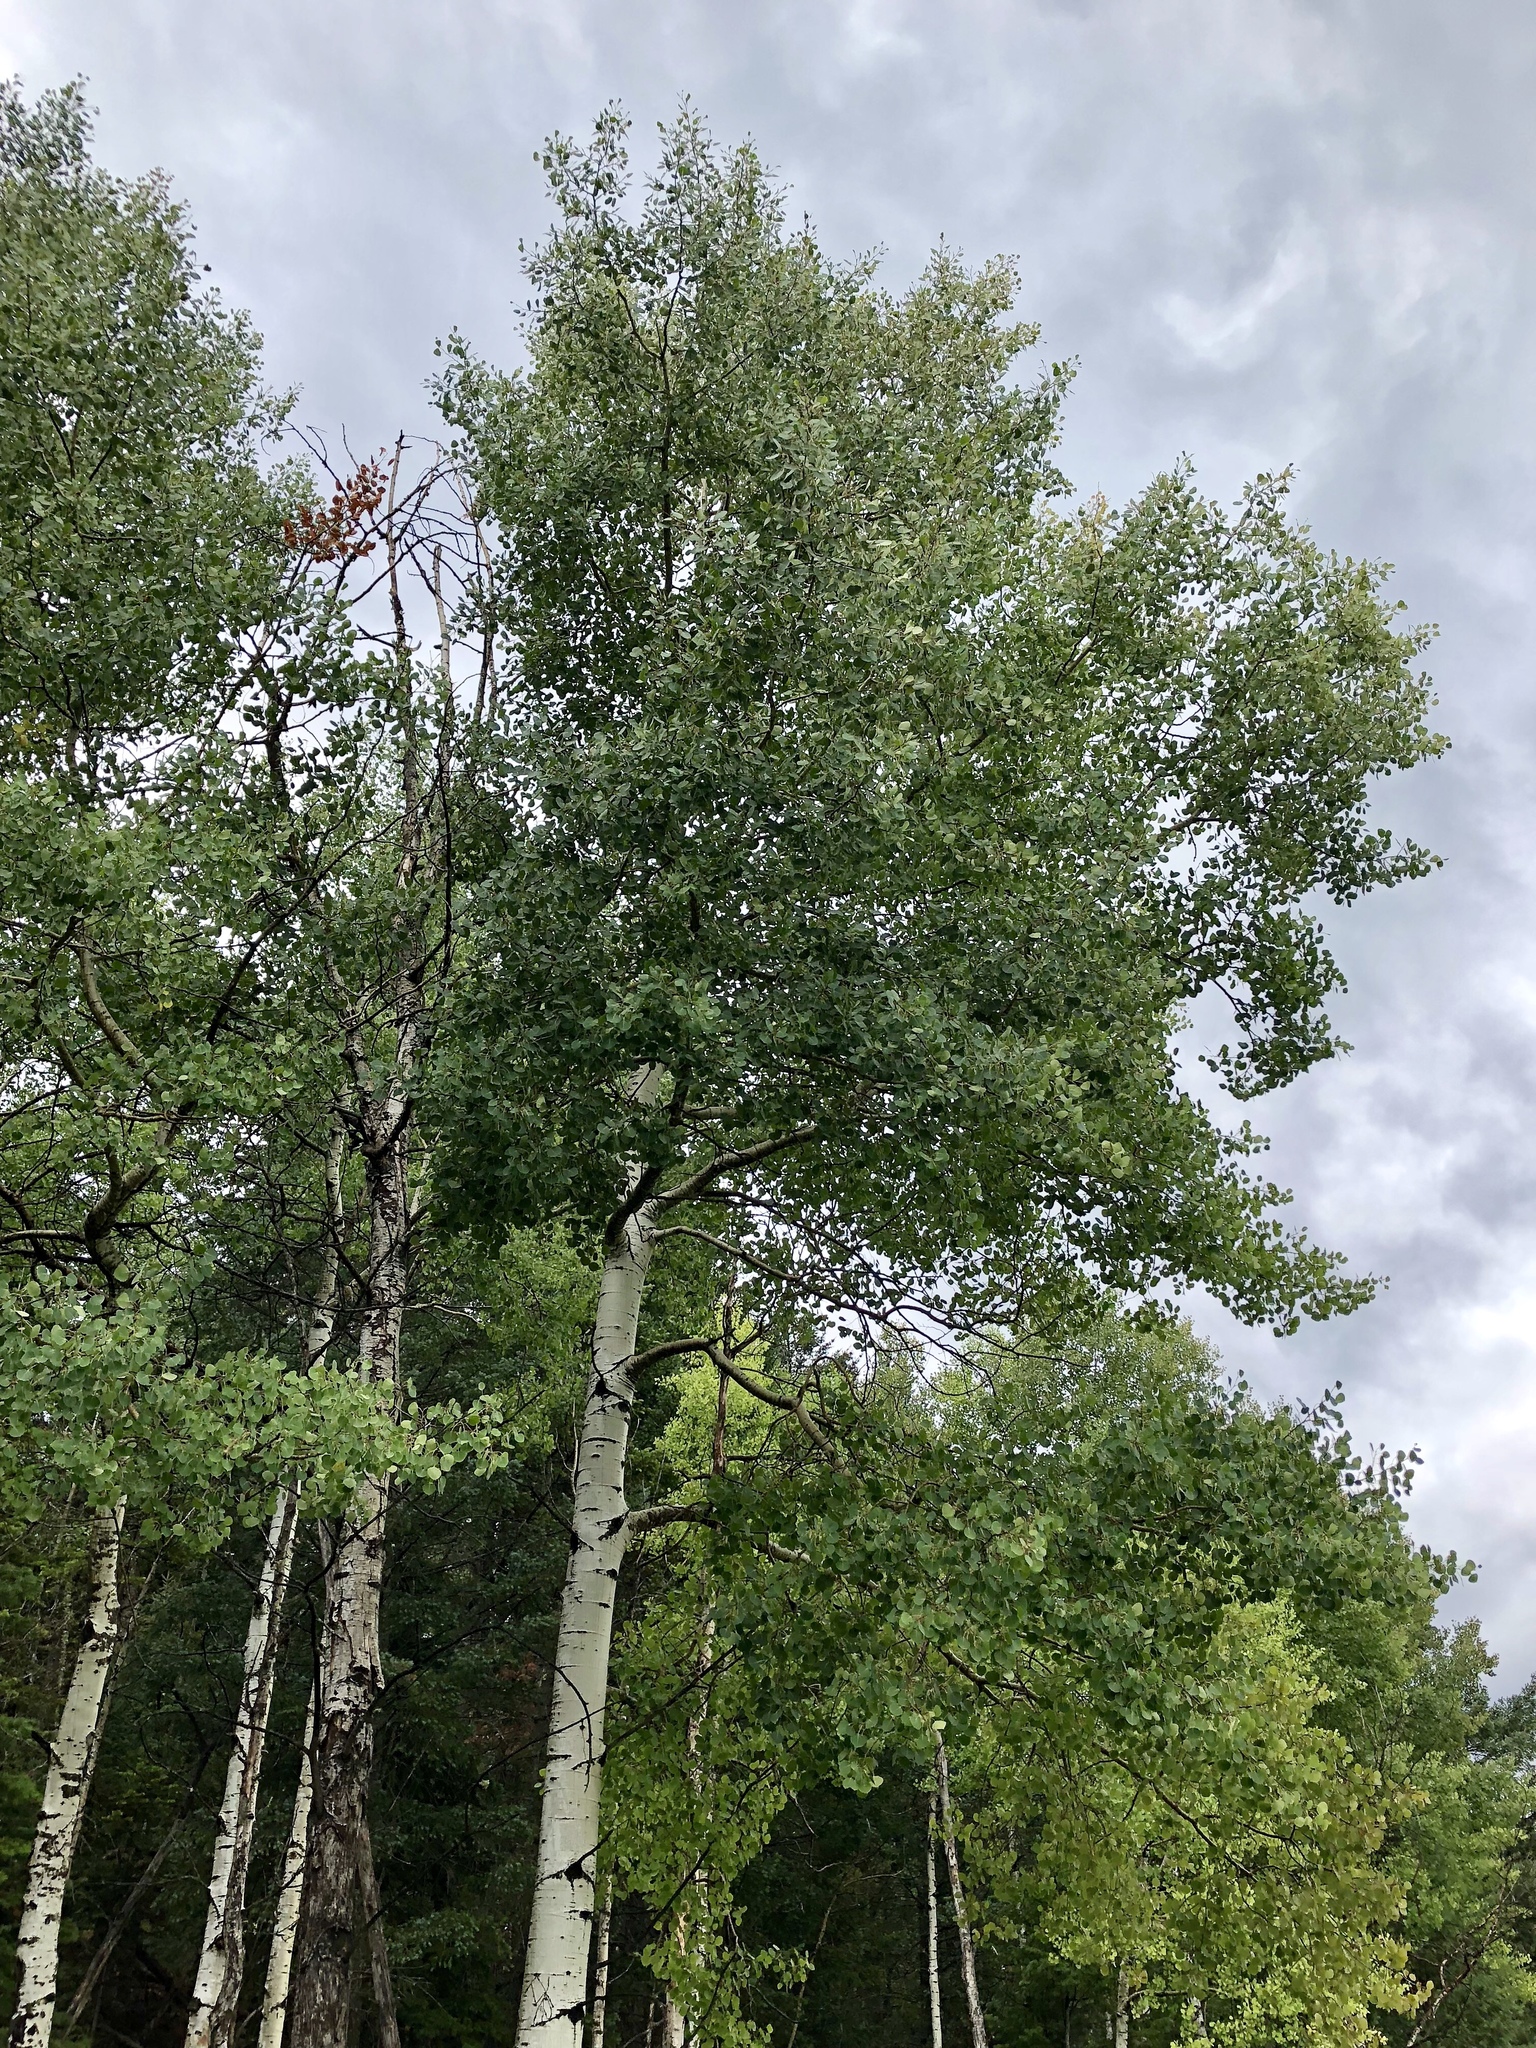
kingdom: Plantae
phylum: Tracheophyta
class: Magnoliopsida
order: Malpighiales
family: Salicaceae
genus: Populus
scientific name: Populus tremuloides
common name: Quaking aspen
